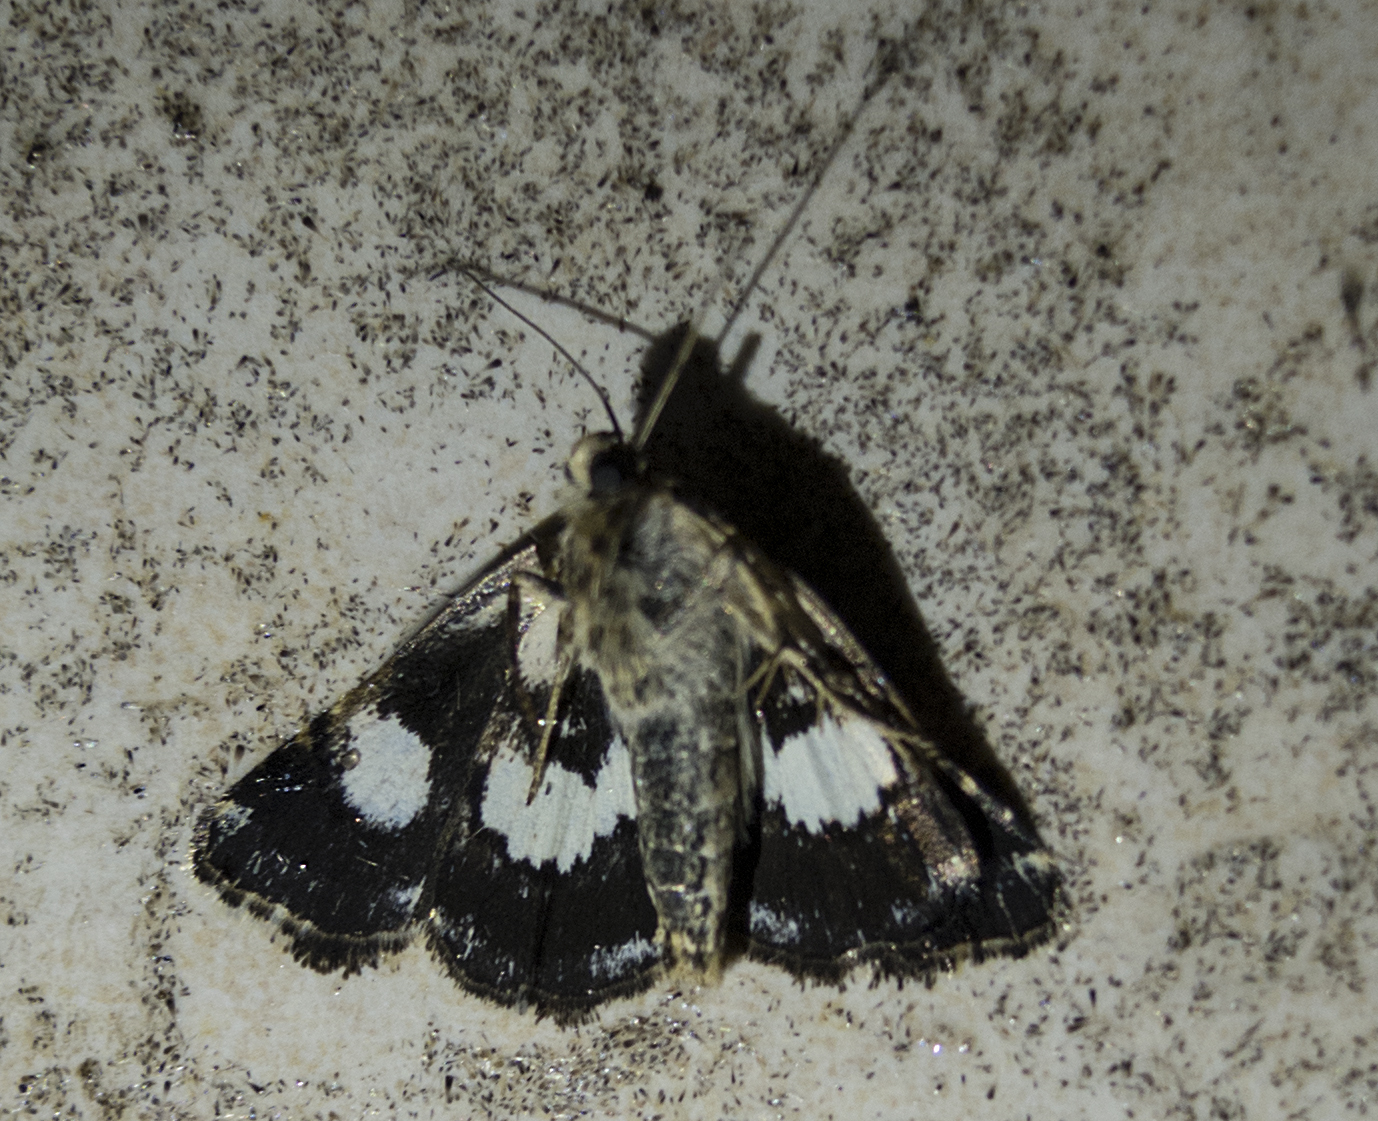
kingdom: Animalia
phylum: Arthropoda
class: Insecta
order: Lepidoptera
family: Erebidae
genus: Tyta
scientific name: Tyta luctuosa
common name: Four-spotted
